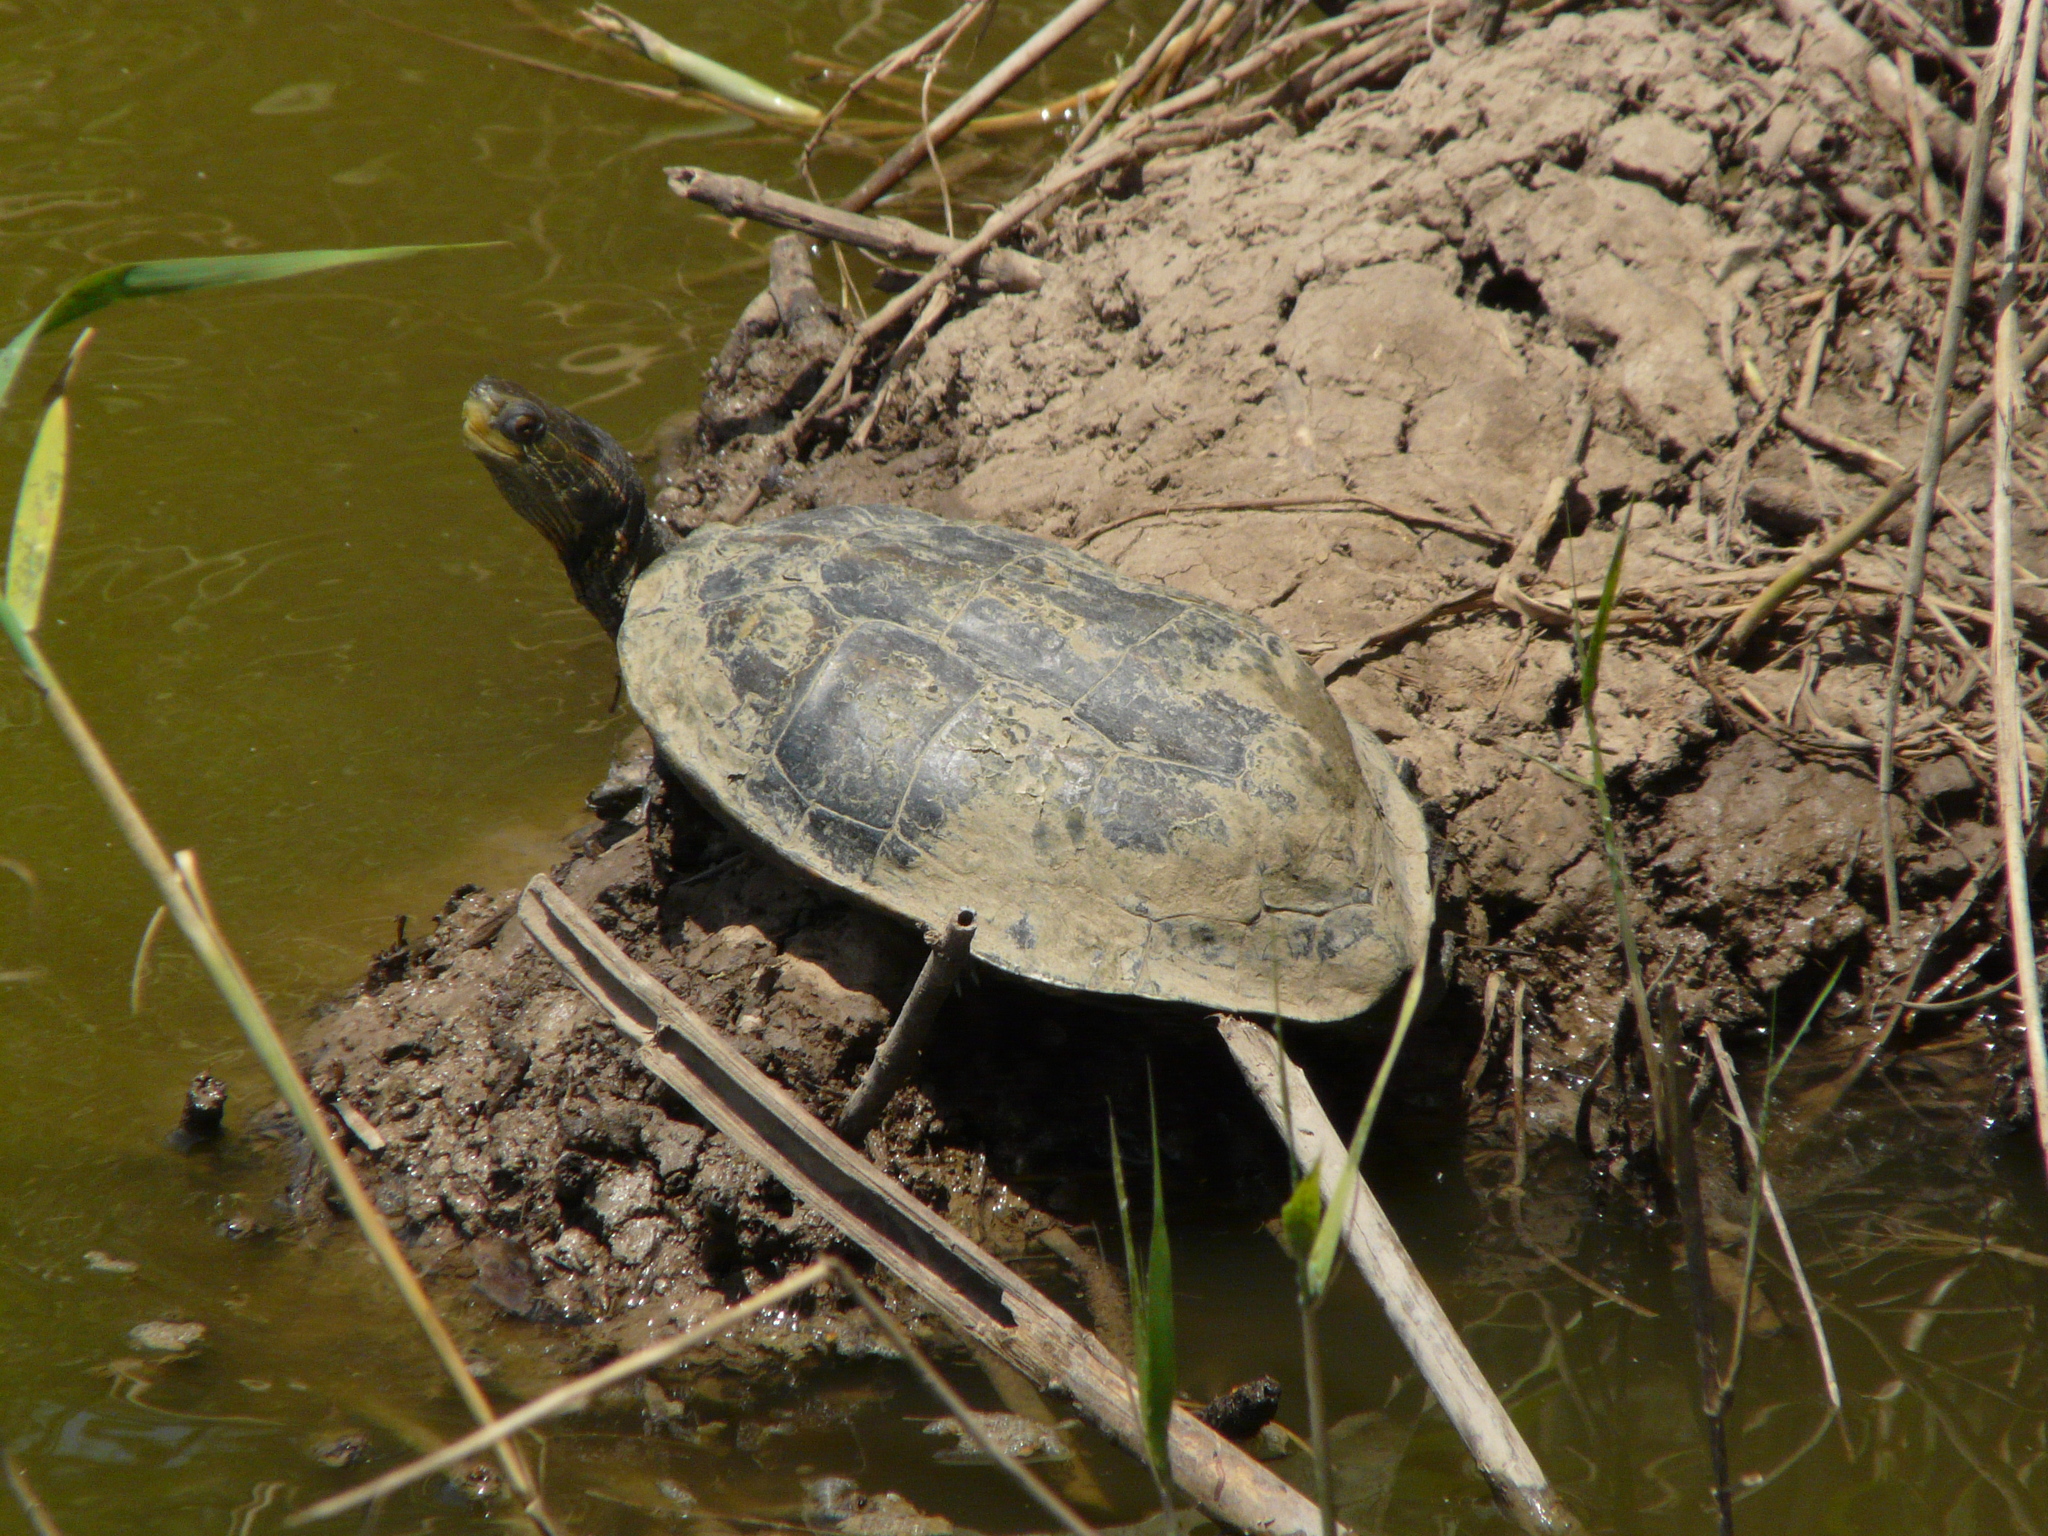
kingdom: Animalia
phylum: Chordata
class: Testudines
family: Geoemydidae
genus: Mauremys
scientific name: Mauremys rivulata
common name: Western caspian turtle
